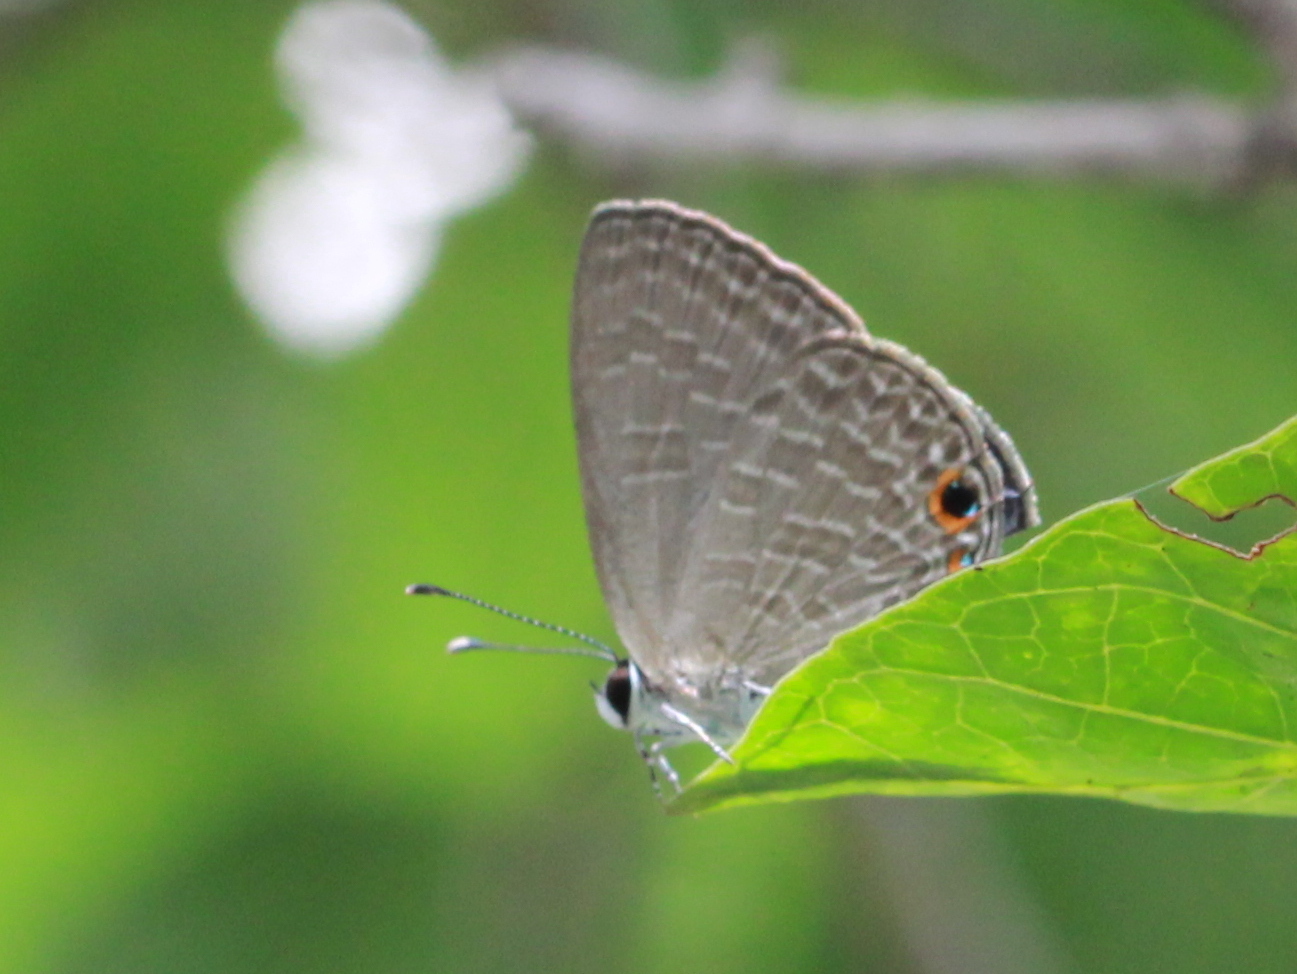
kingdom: Animalia
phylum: Arthropoda
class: Insecta
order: Lepidoptera
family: Lycaenidae
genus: Jamides
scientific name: Jamides bochus
